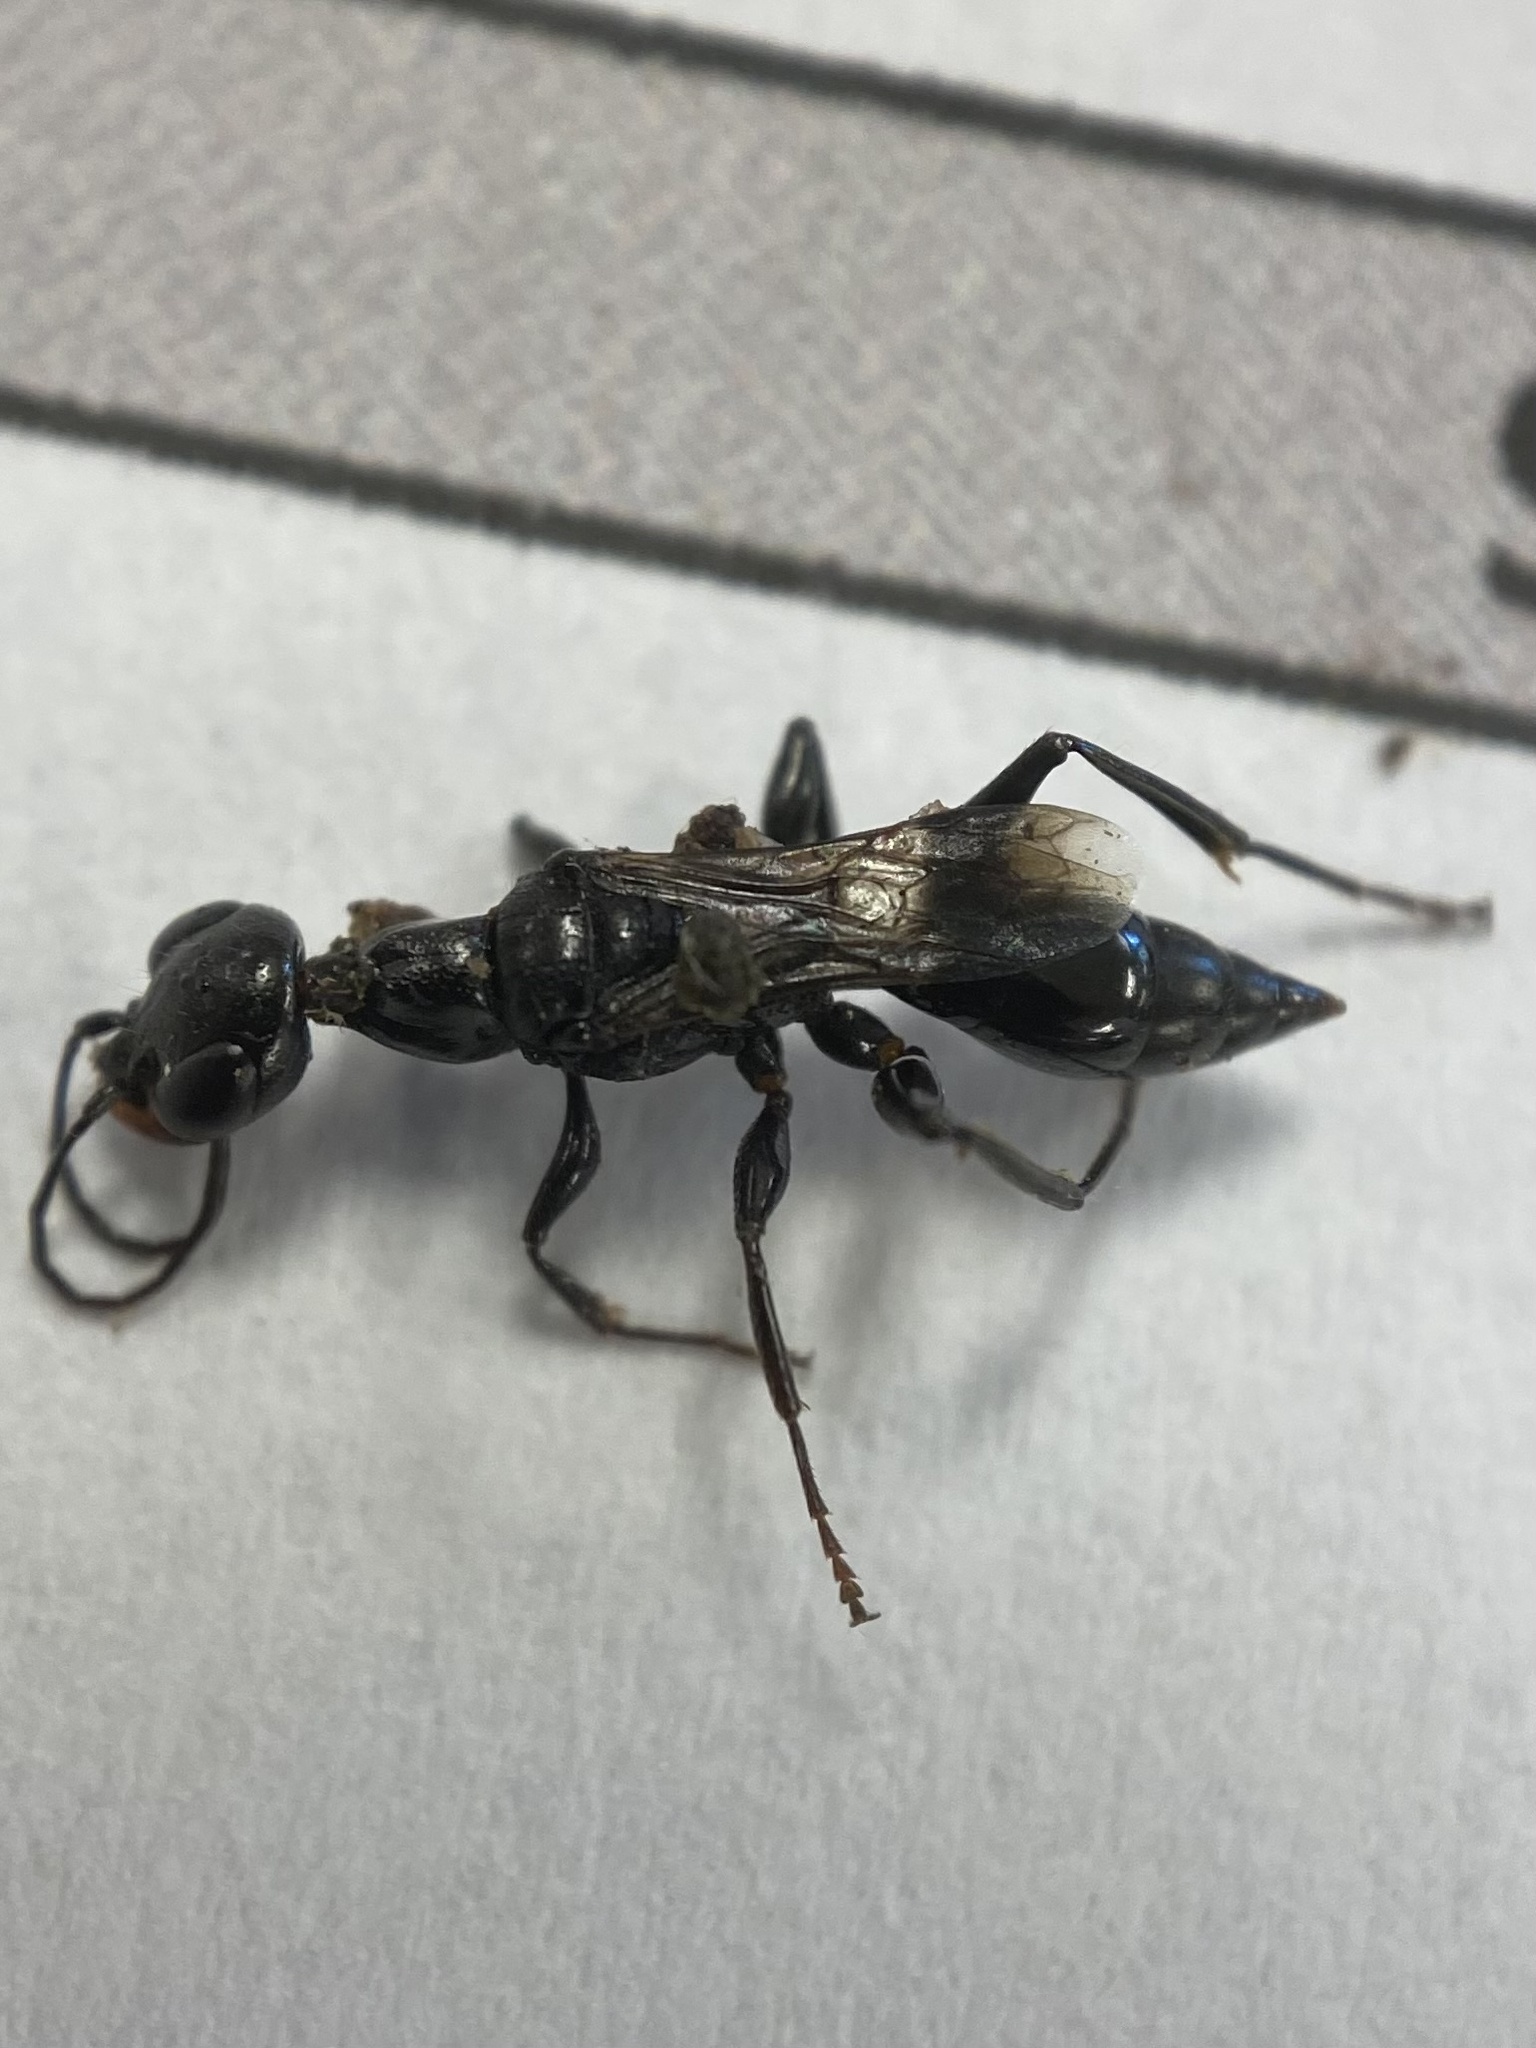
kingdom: Animalia
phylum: Arthropoda
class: Insecta
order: Hymenoptera
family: Ampulicidae
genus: Ampulex
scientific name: Ampulex canaliculata
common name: Cockroach wasp
